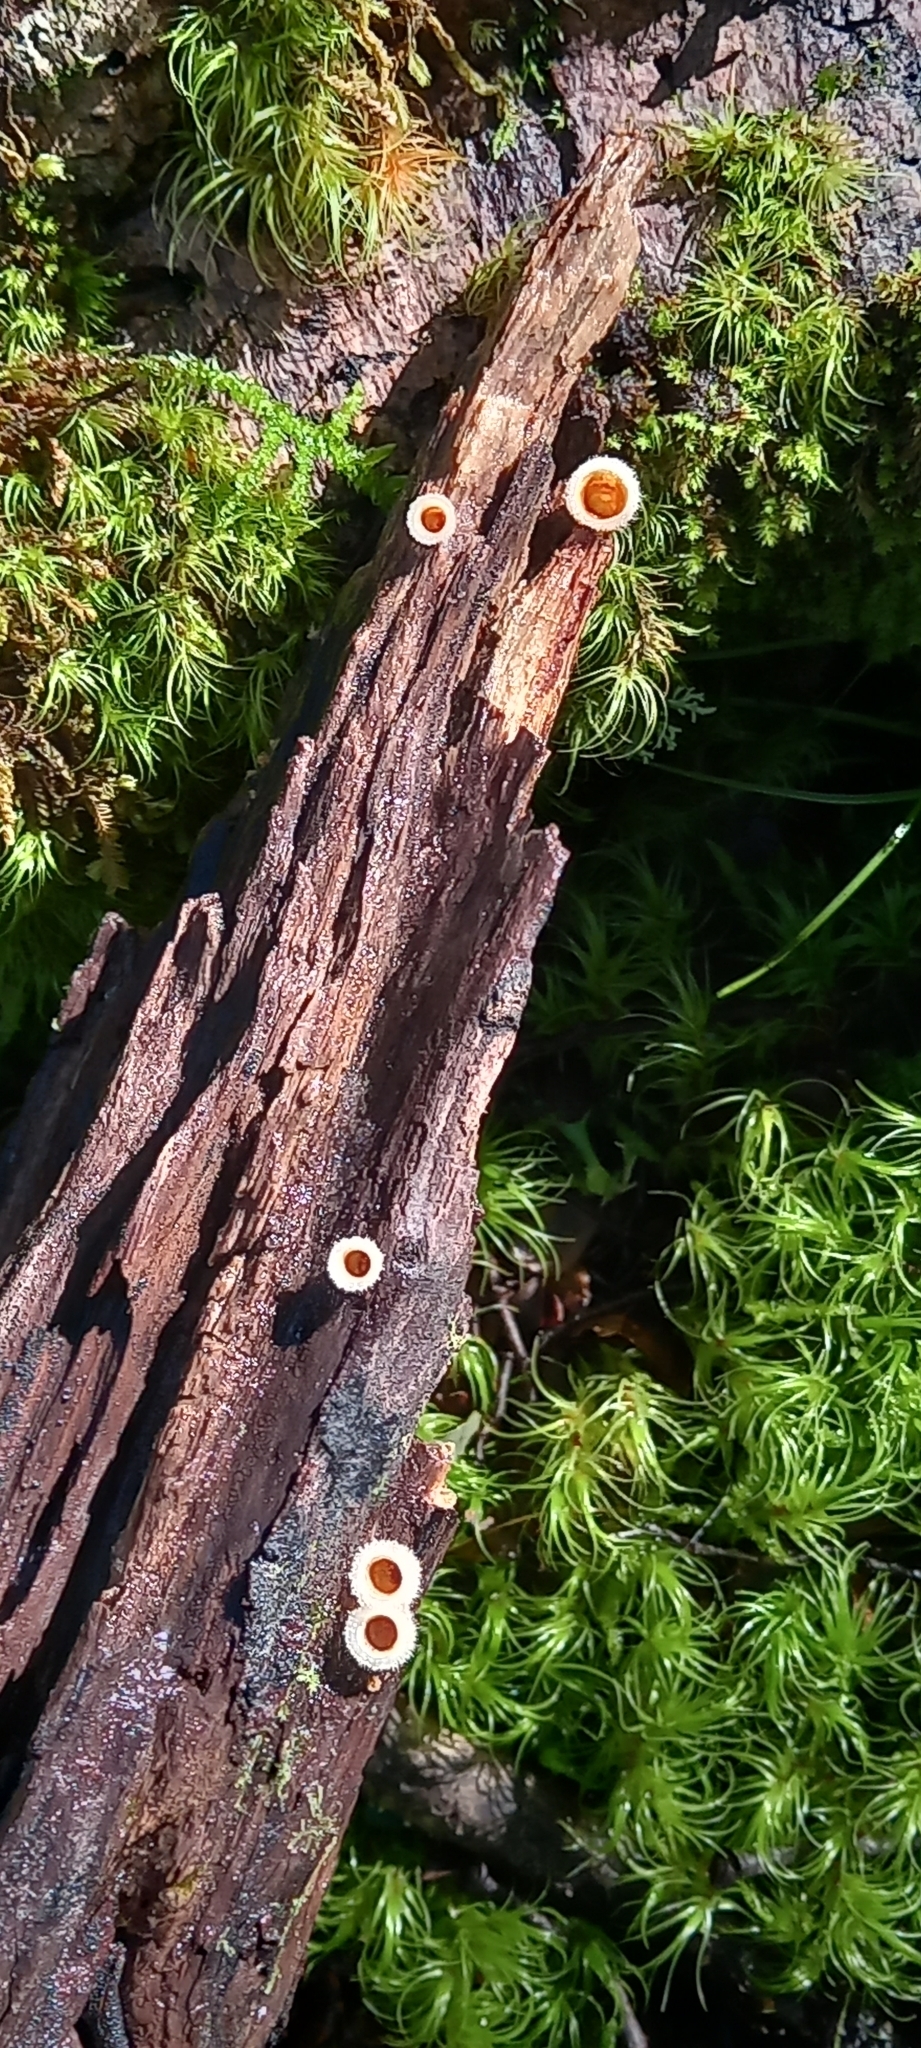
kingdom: Fungi
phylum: Basidiomycota
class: Agaricomycetes
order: Agaricales
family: Agaricaceae
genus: Nidula
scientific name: Nidula niveotomentosa
